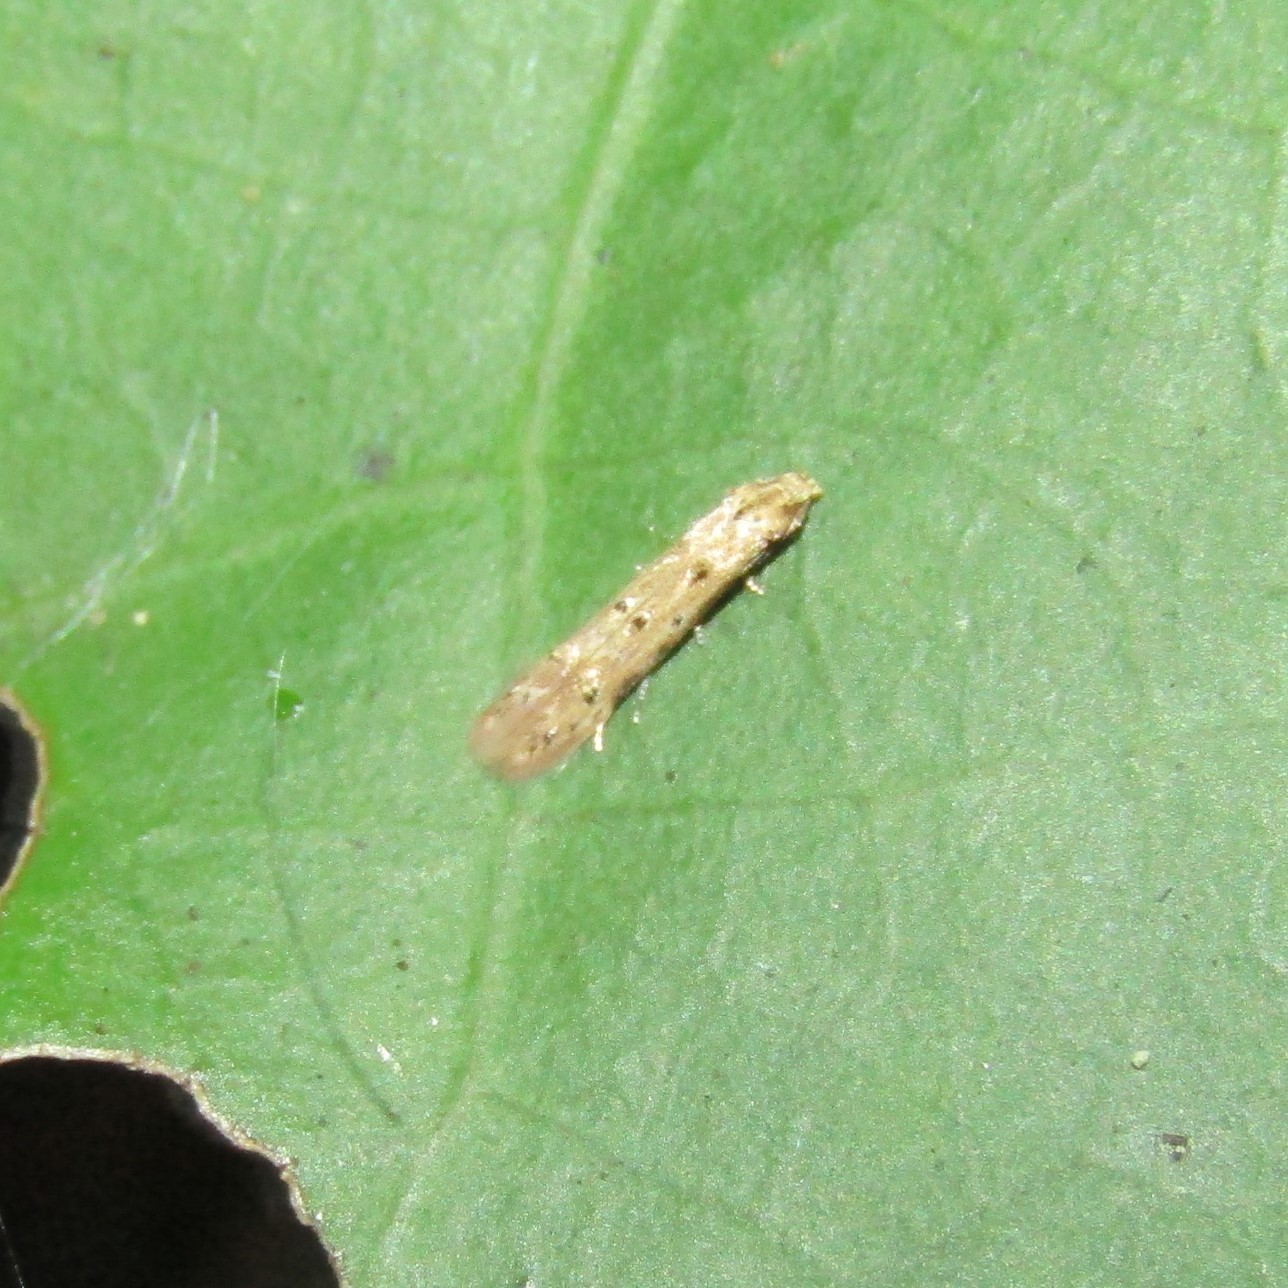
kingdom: Animalia
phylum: Arthropoda
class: Insecta
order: Lepidoptera
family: Elachistidae
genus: Microcolona
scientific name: Microcolona limodes
